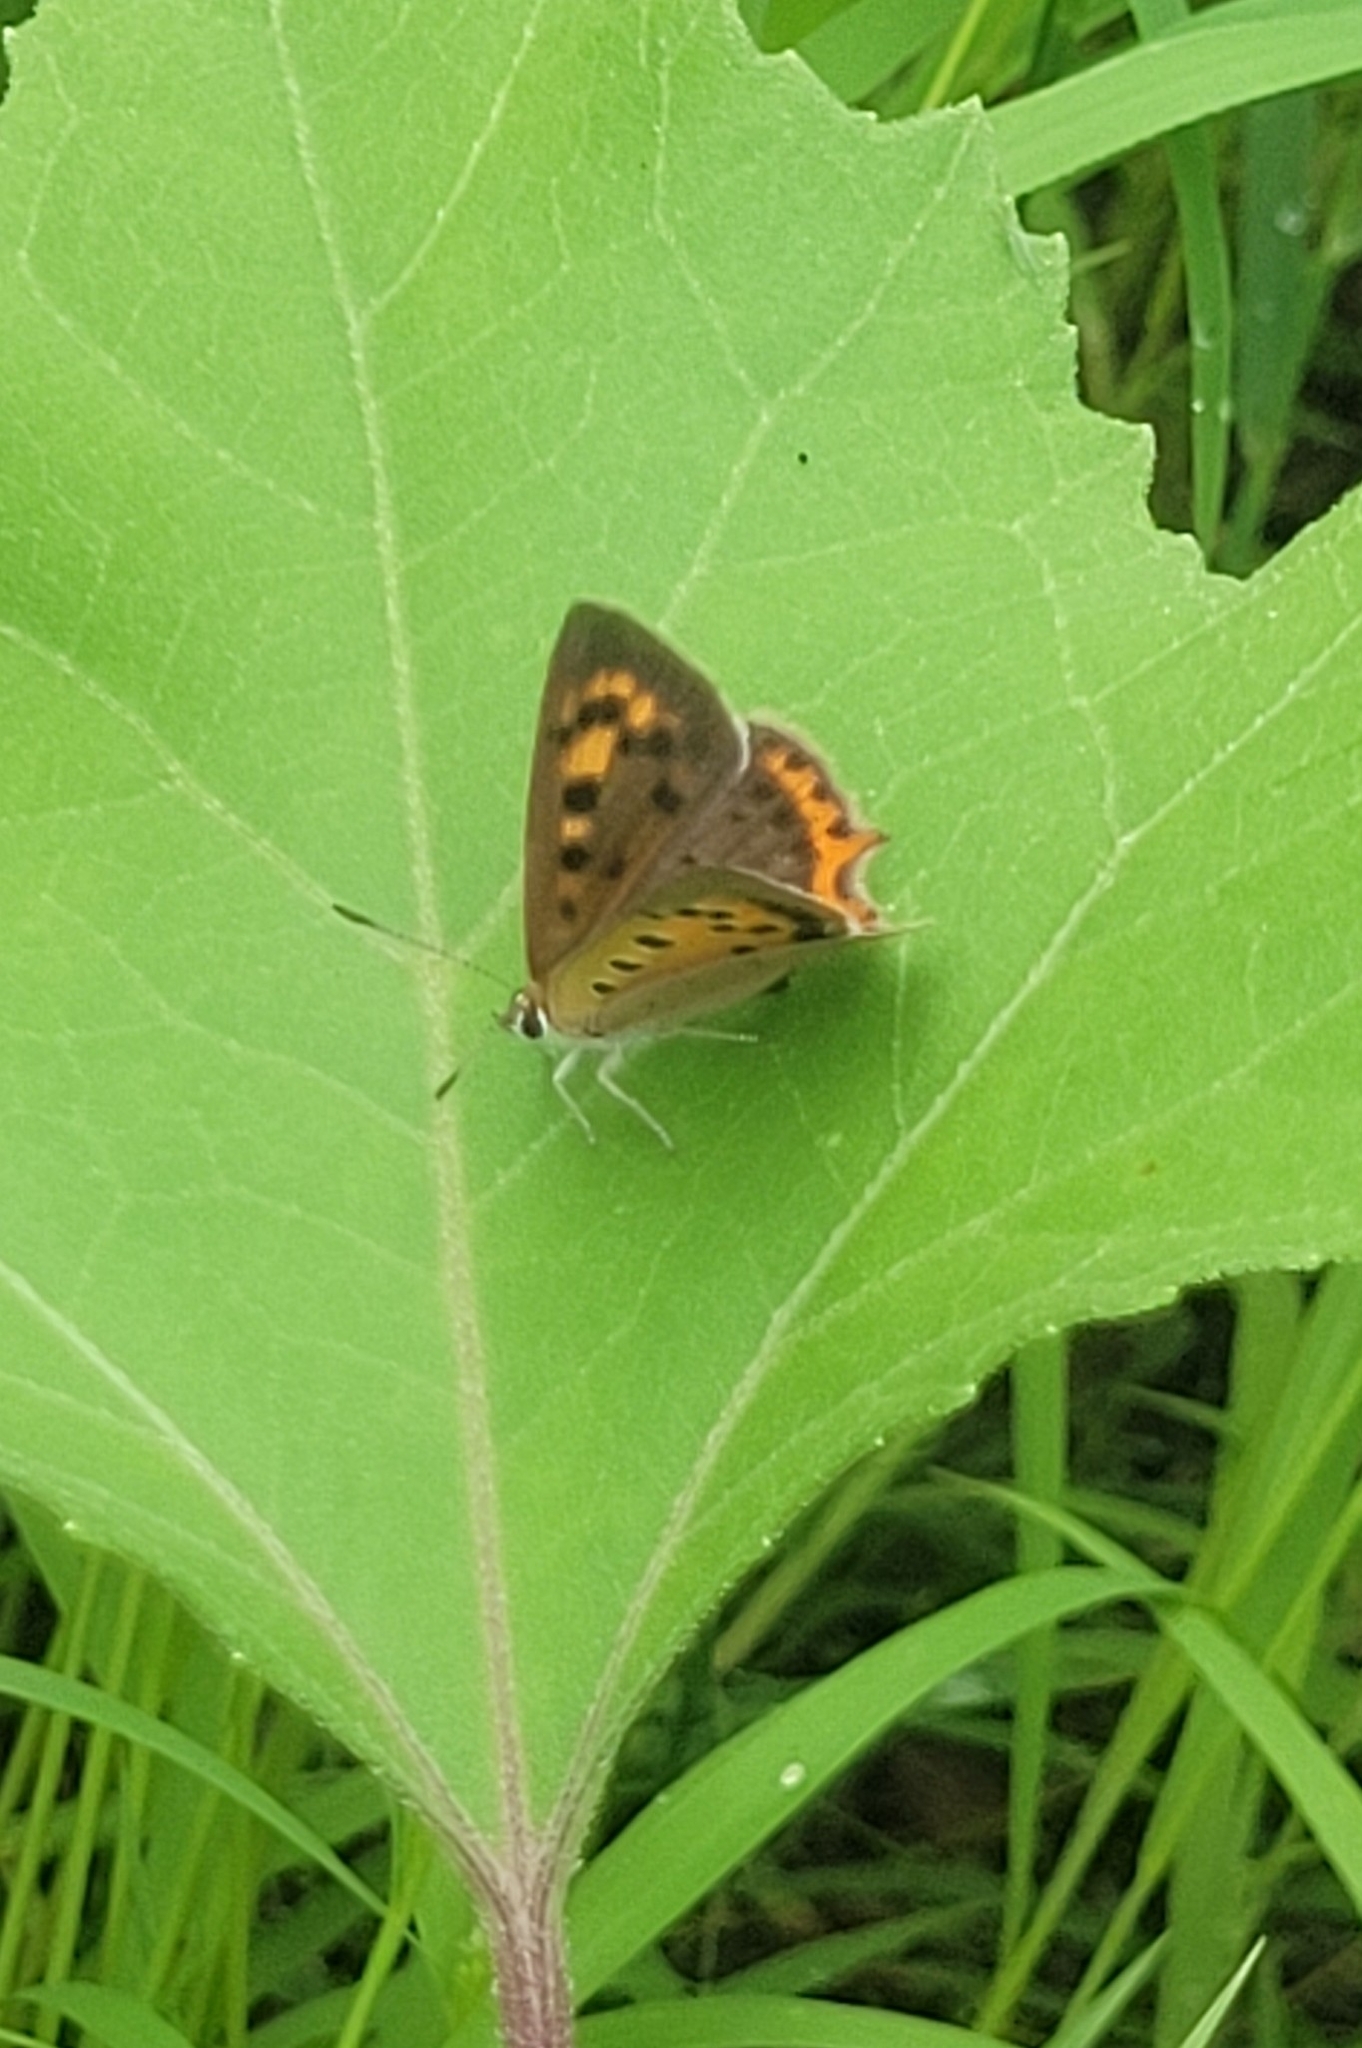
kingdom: Animalia
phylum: Arthropoda
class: Insecta
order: Lepidoptera
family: Lycaenidae
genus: Lycaena
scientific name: Lycaena phlaeas
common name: Small copper
